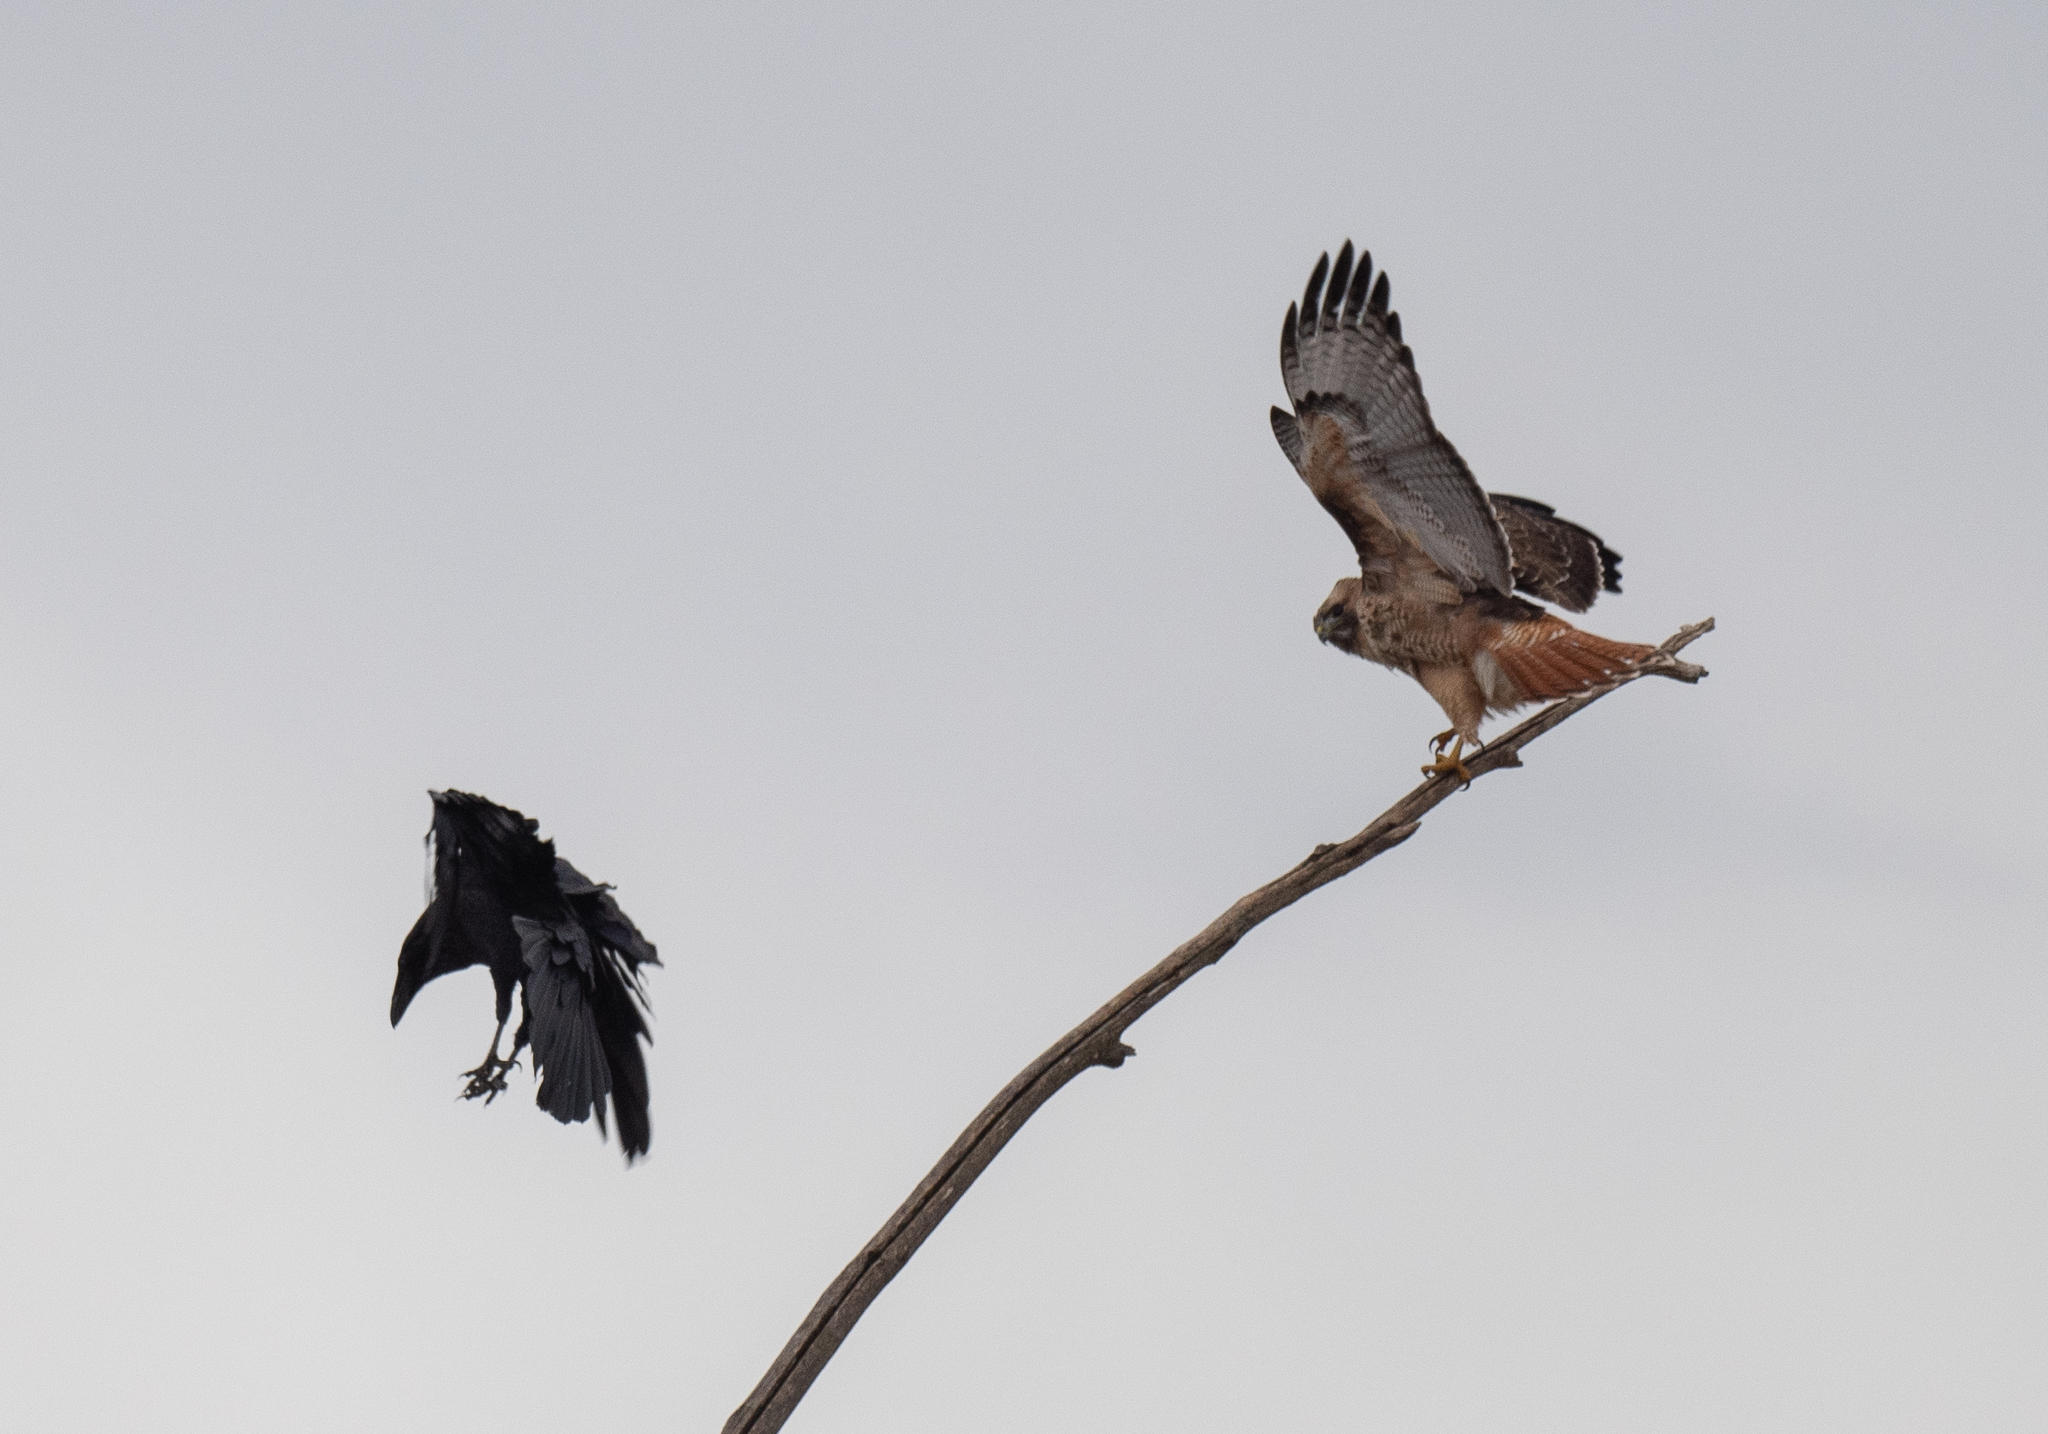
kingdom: Animalia
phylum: Chordata
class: Aves
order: Accipitriformes
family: Accipitridae
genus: Buteo
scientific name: Buteo jamaicensis
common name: Red-tailed hawk
